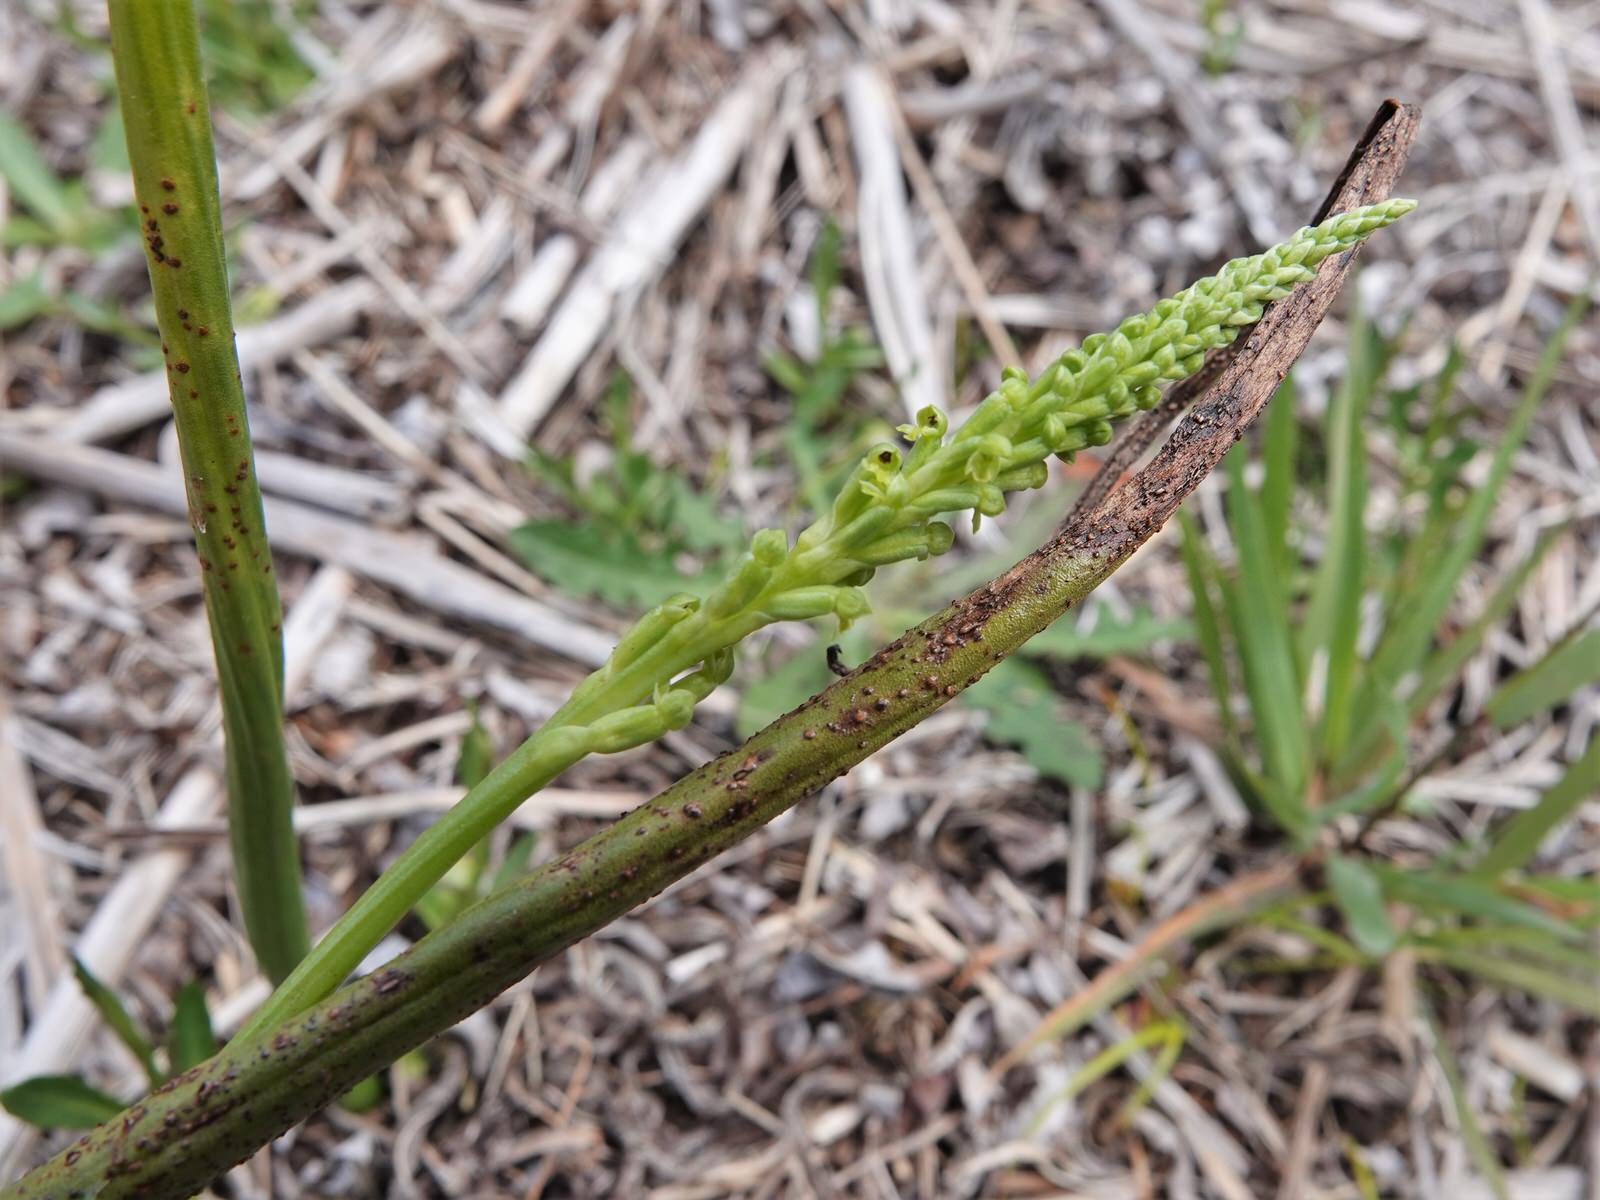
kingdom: Plantae
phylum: Tracheophyta
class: Liliopsida
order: Asparagales
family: Orchidaceae
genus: Microtis
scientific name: Microtis unifolia
